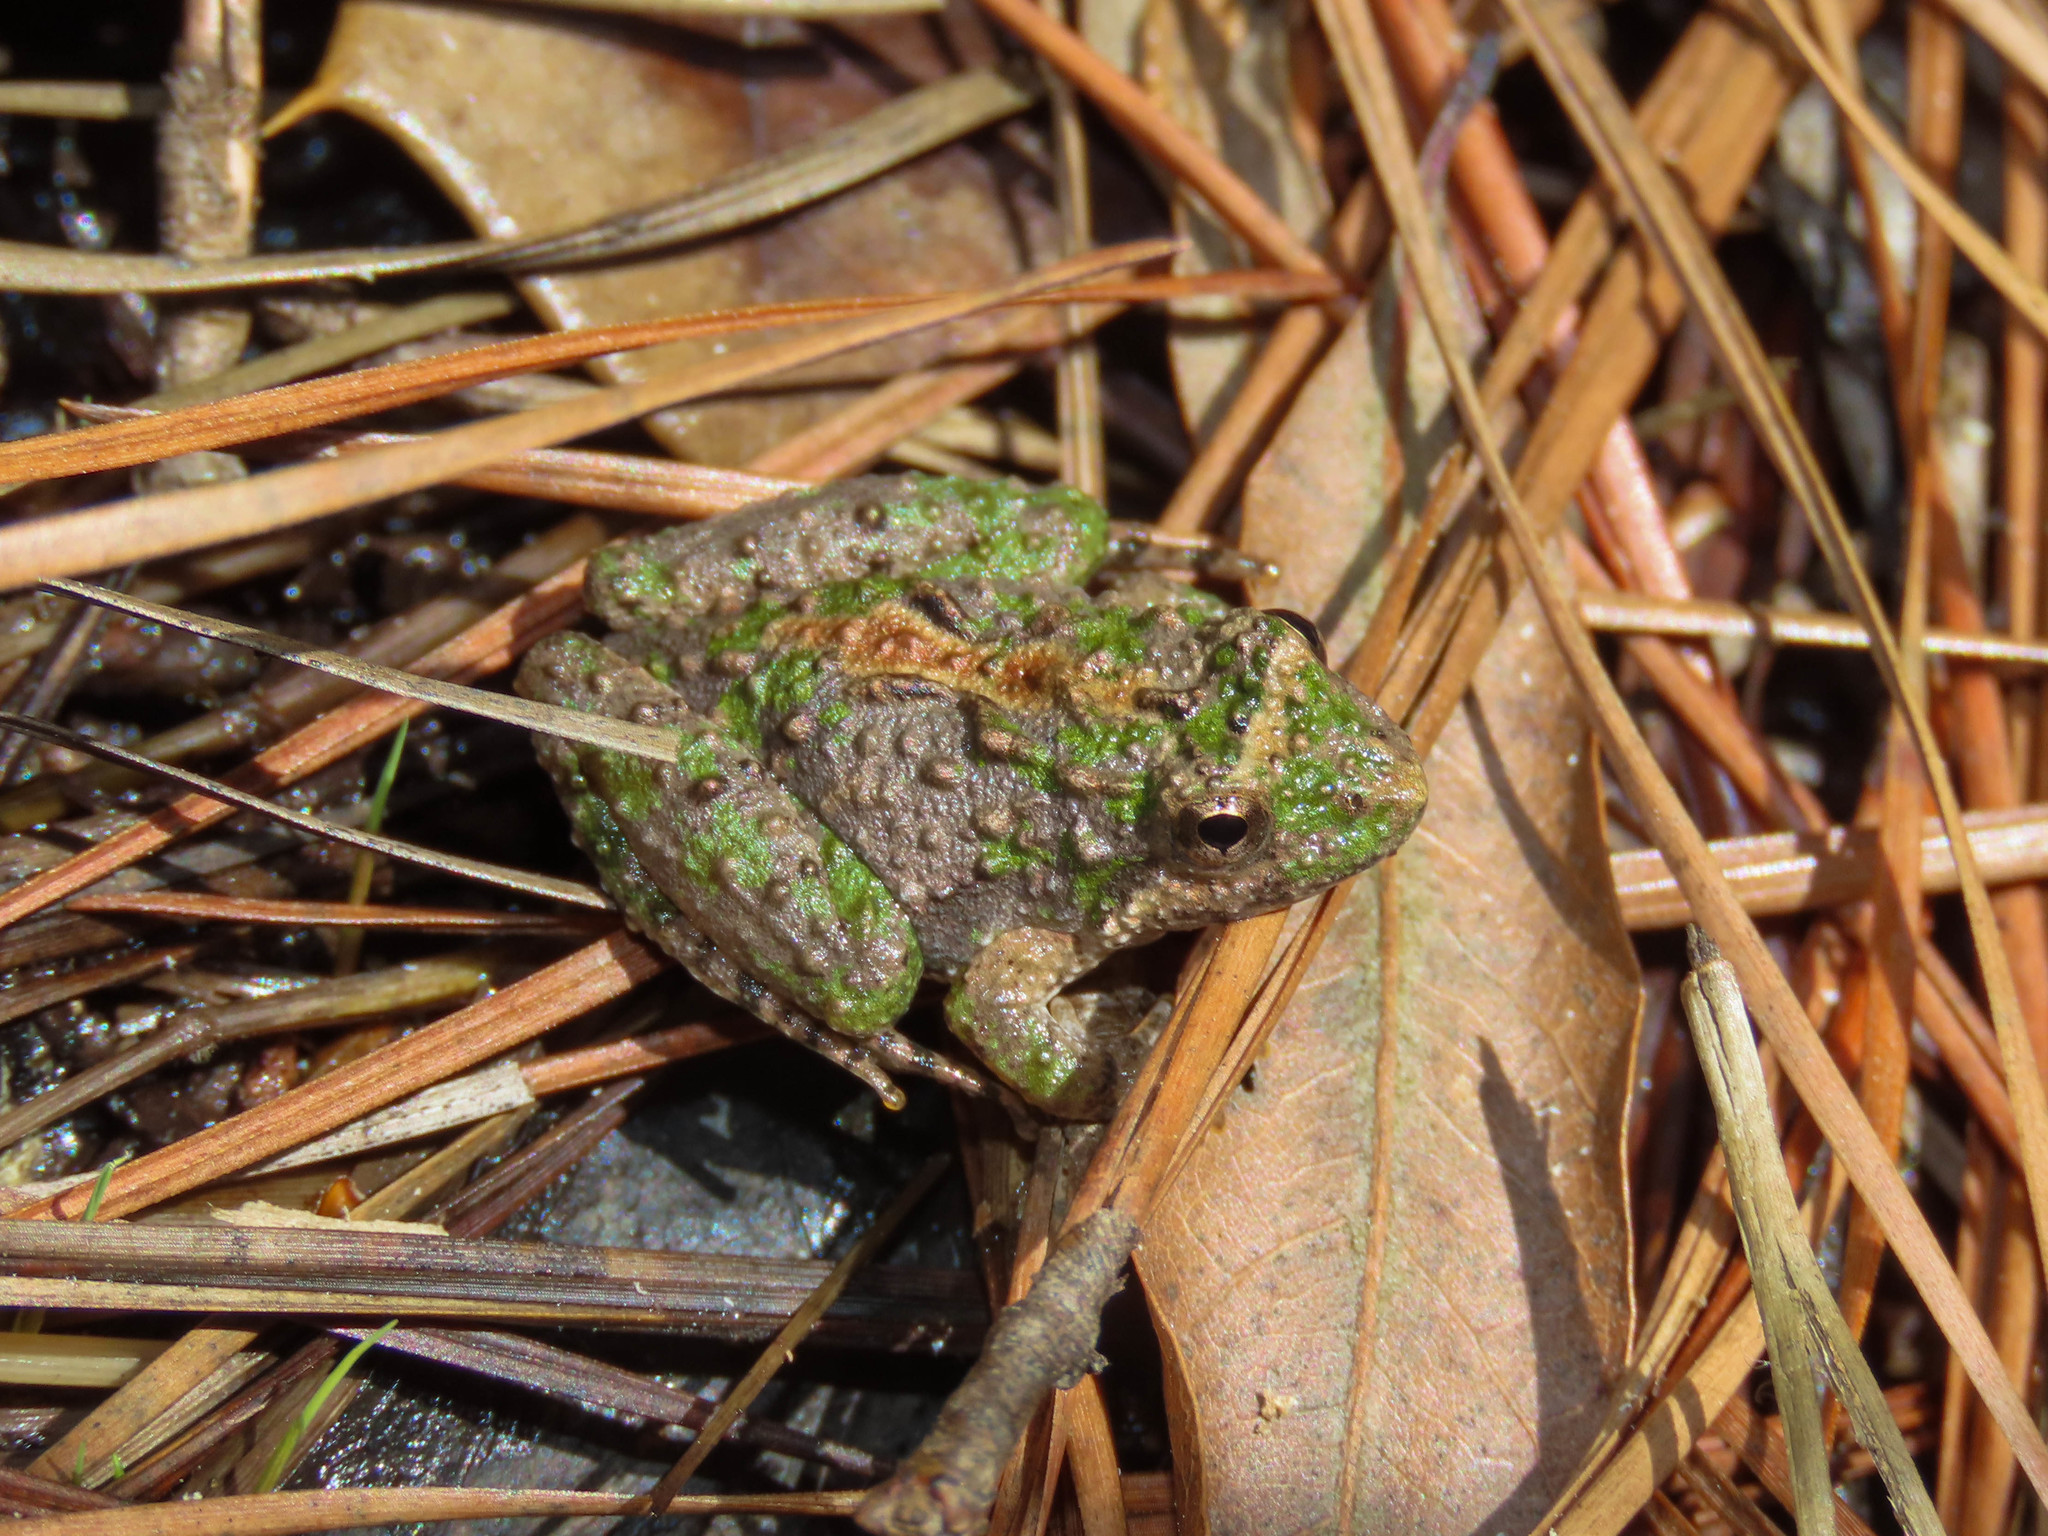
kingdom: Animalia
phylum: Chordata
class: Amphibia
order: Anura
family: Hylidae
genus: Acris
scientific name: Acris crepitans
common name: Northern cricket frog
